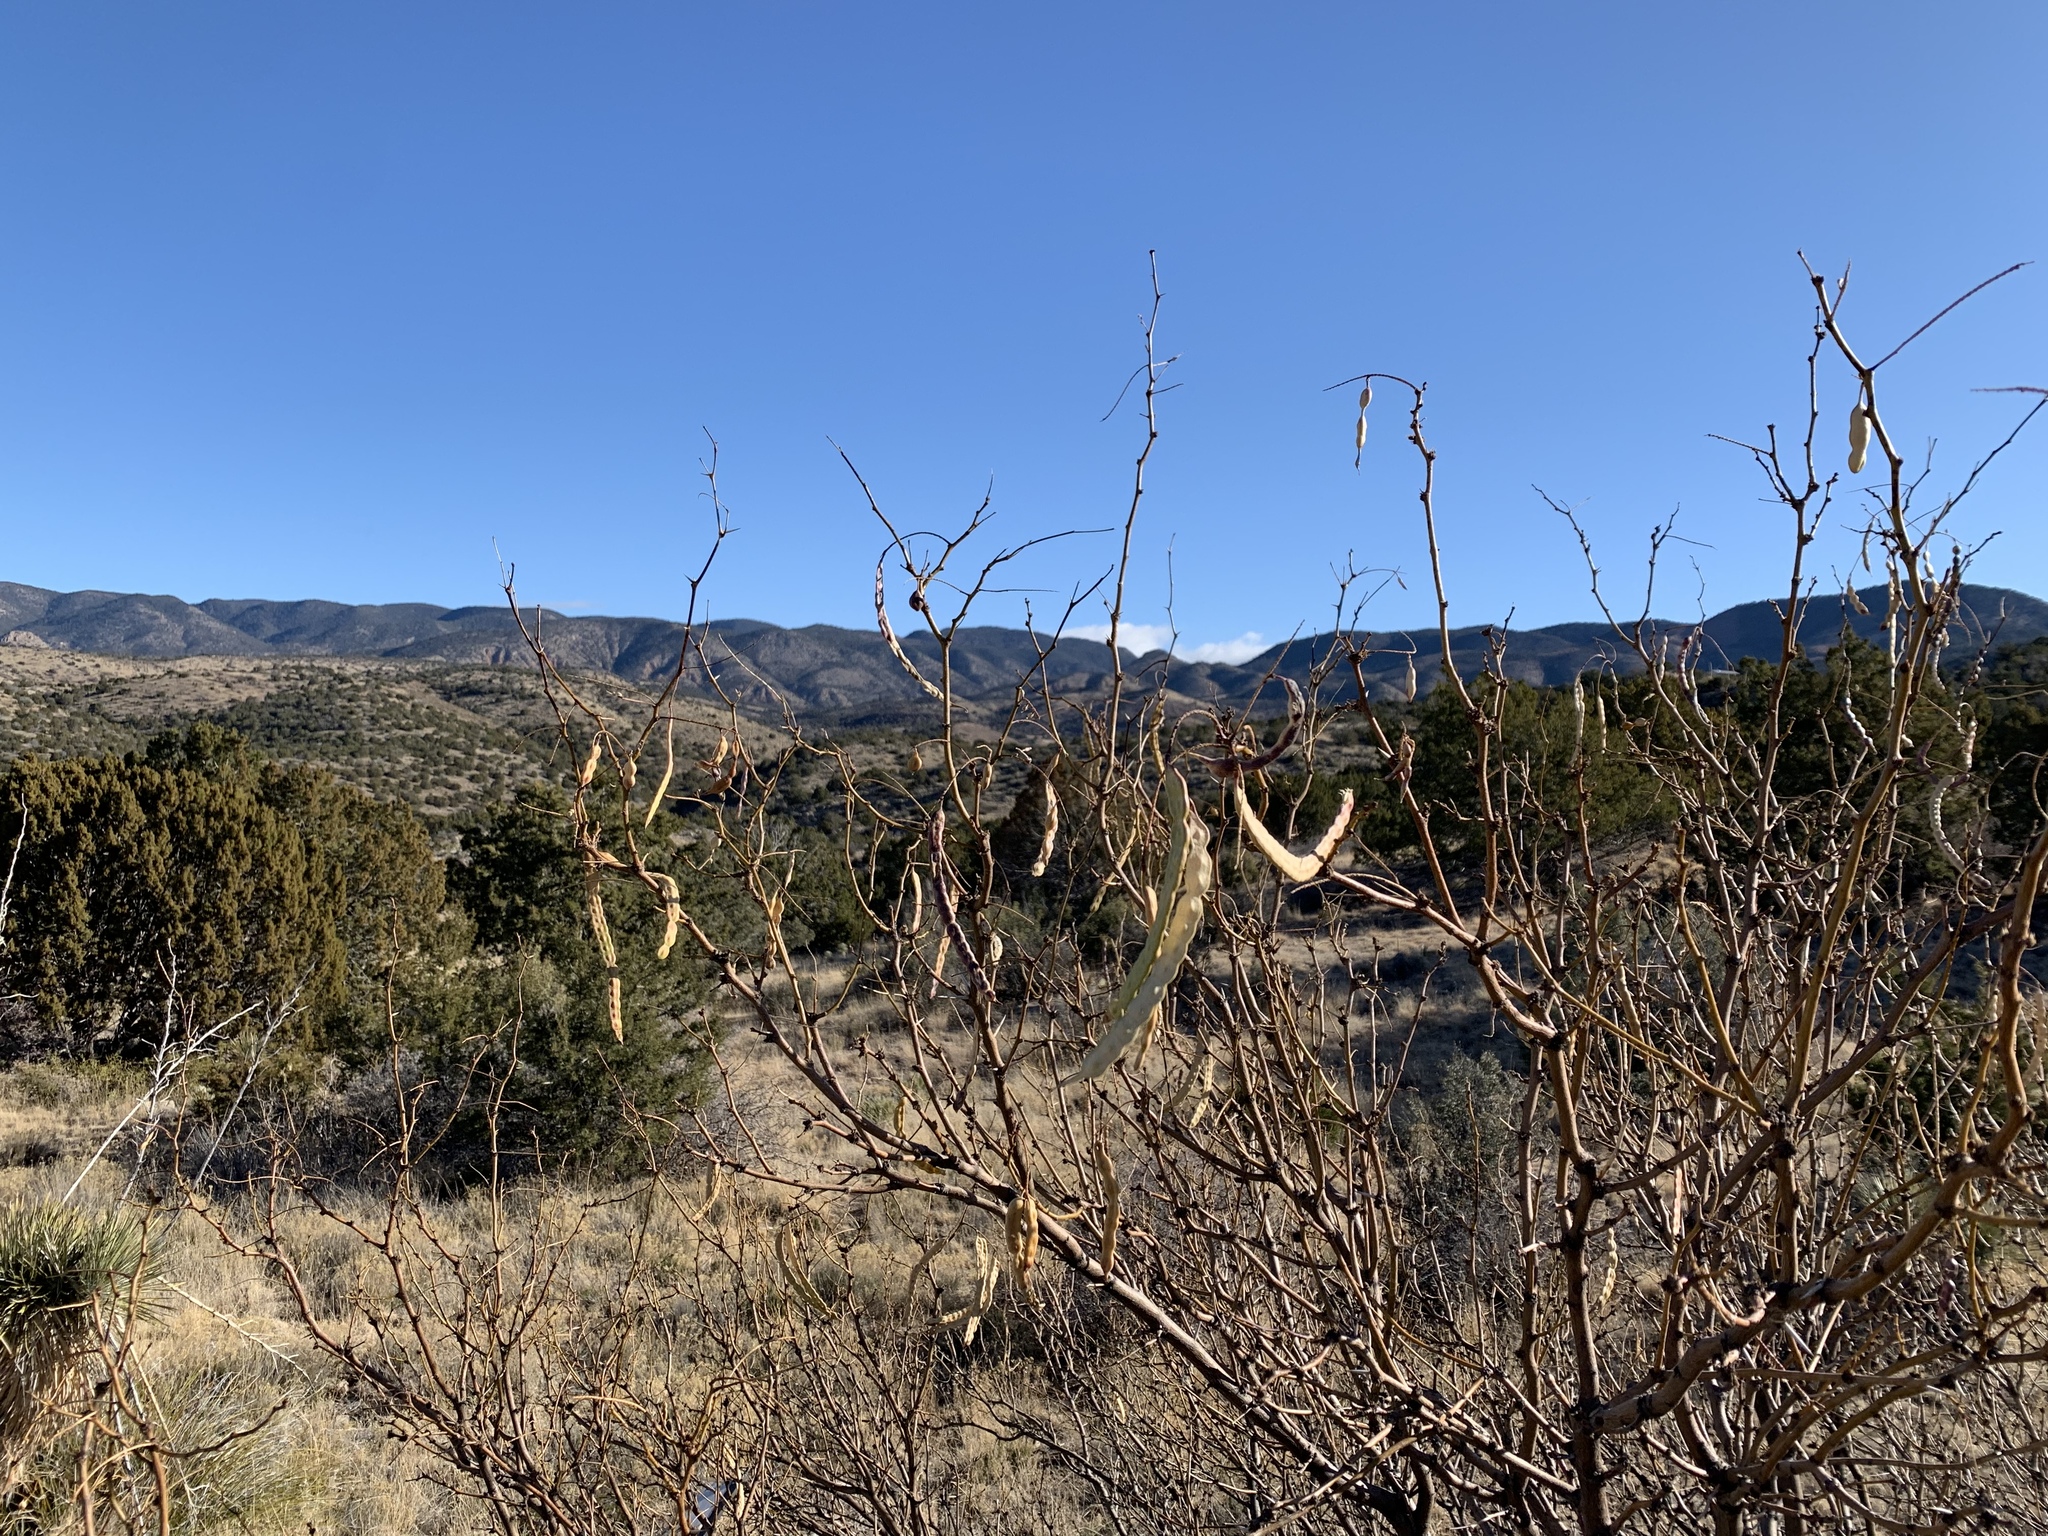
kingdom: Plantae
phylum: Tracheophyta
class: Magnoliopsida
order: Fabales
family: Fabaceae
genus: Prosopis
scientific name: Prosopis glandulosa
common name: Honey mesquite
